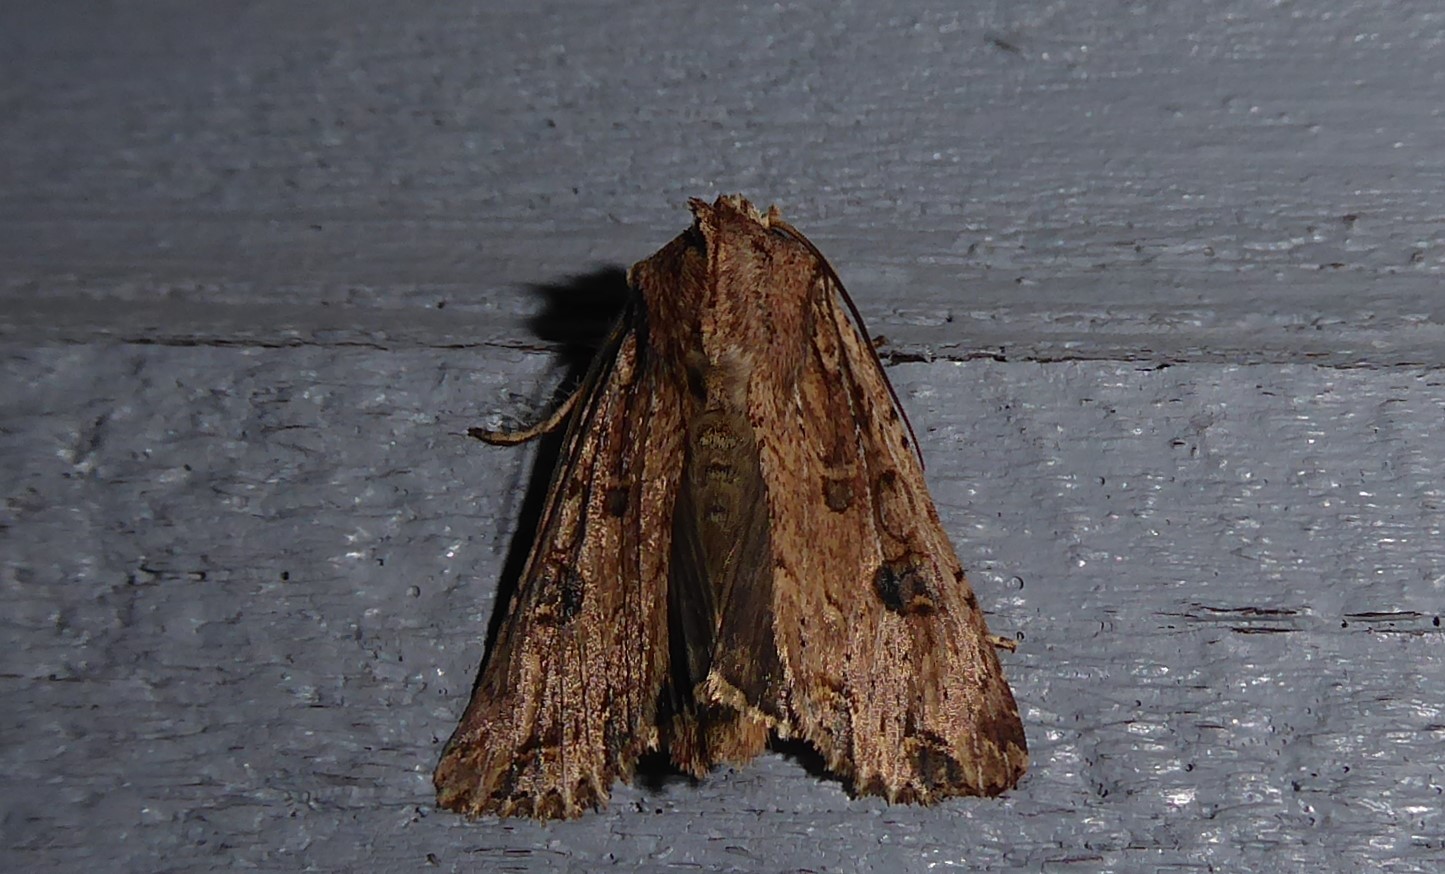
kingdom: Animalia
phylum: Arthropoda
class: Insecta
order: Lepidoptera
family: Noctuidae
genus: Ichneutica
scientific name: Ichneutica lignana
